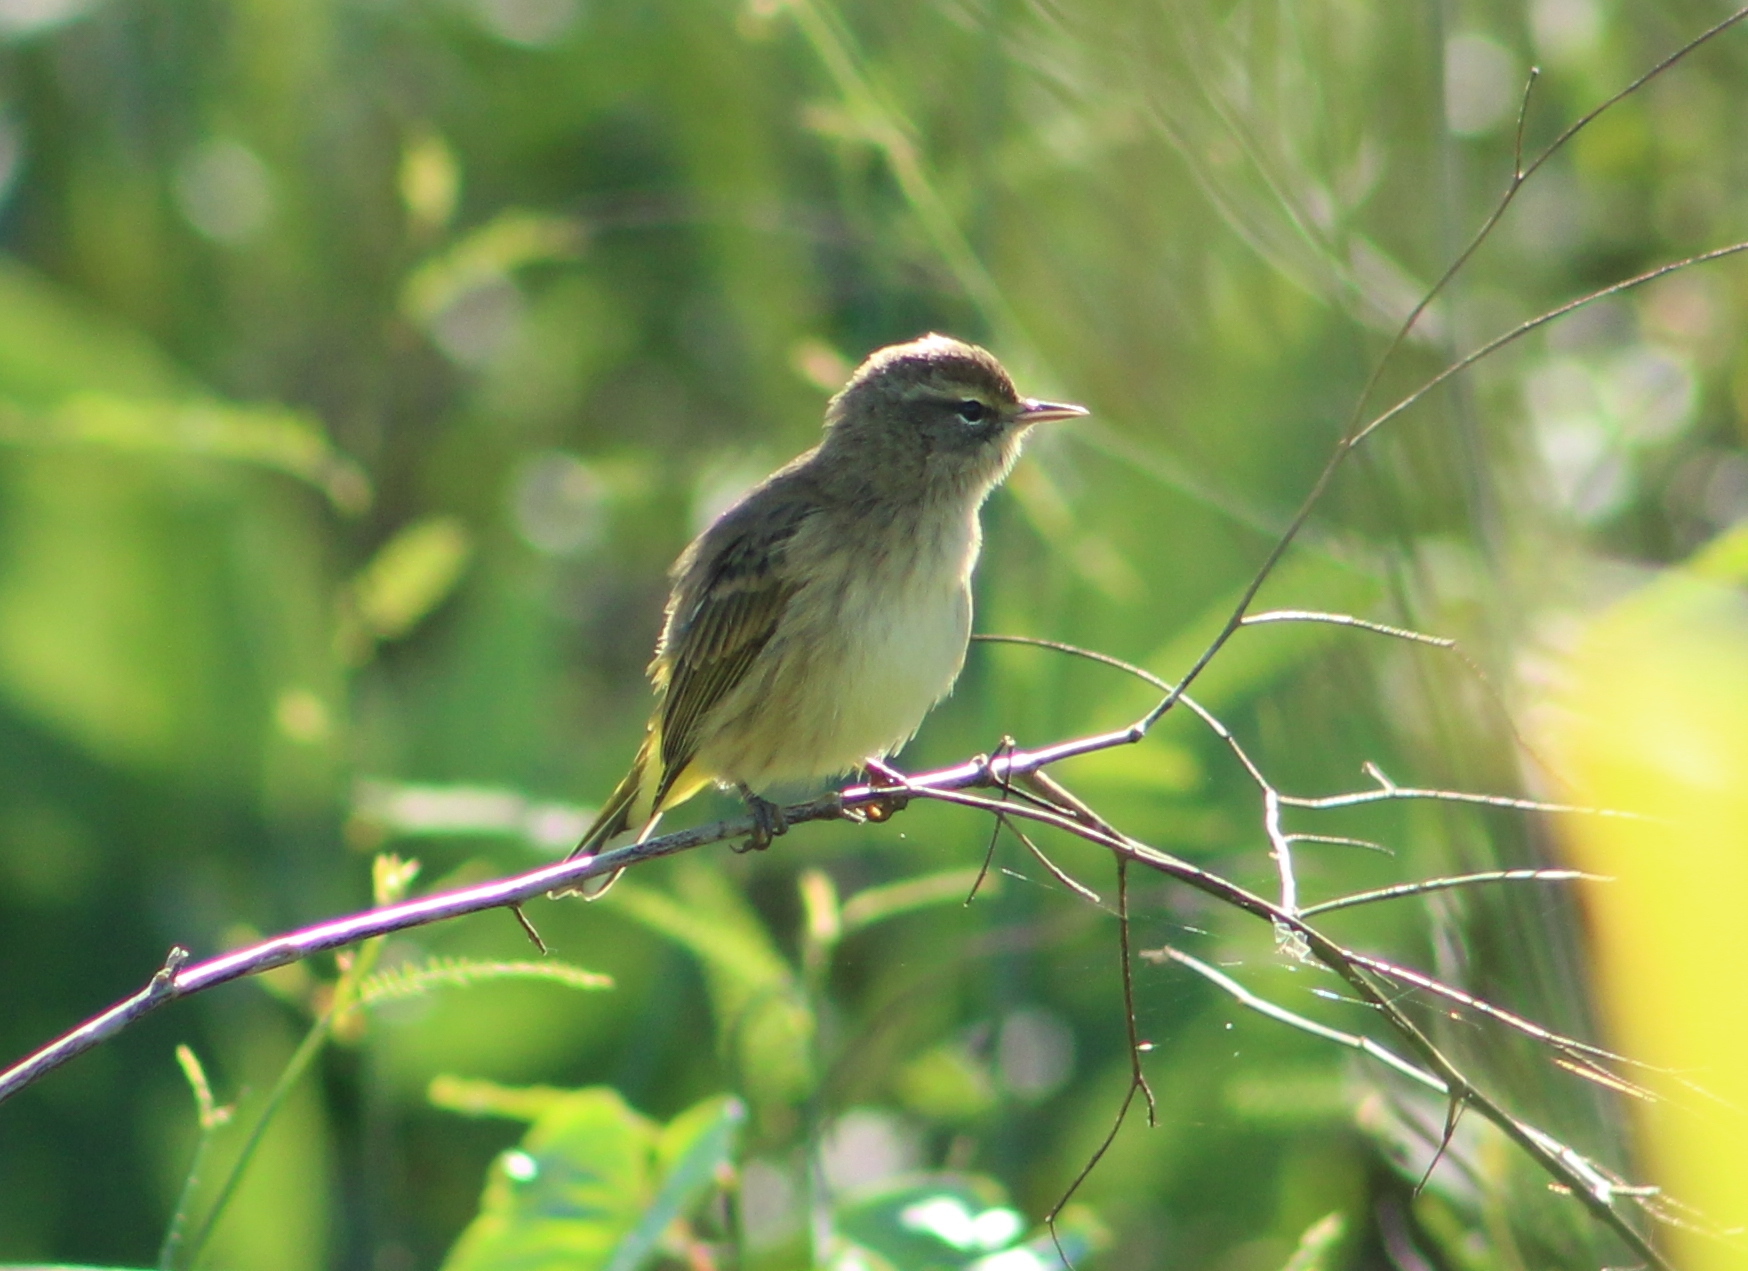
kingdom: Animalia
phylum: Chordata
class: Aves
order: Passeriformes
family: Parulidae
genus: Setophaga
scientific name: Setophaga palmarum
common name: Palm warbler
